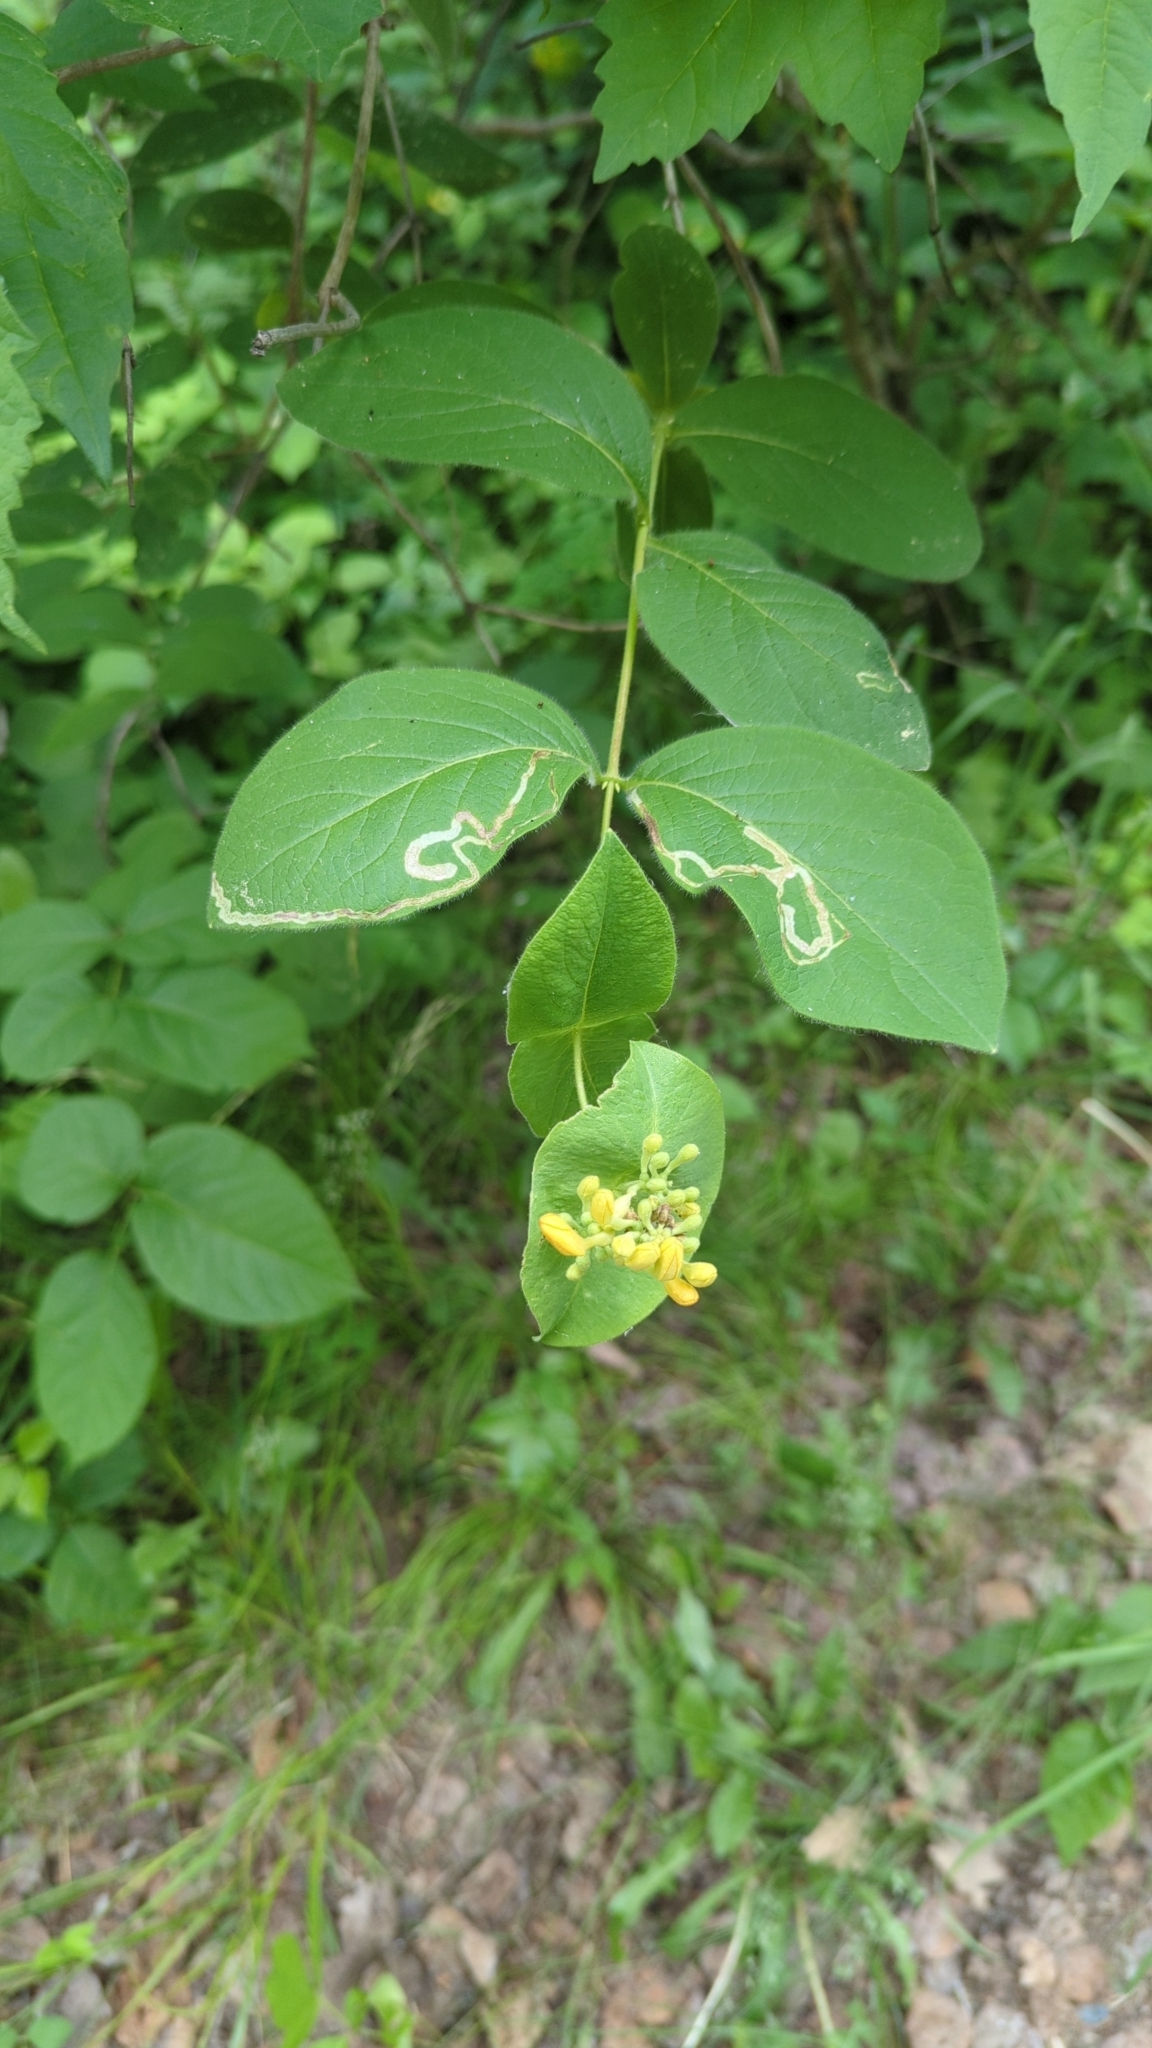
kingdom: Plantae
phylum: Tracheophyta
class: Magnoliopsida
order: Dipsacales
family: Caprifoliaceae
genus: Lonicera
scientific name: Lonicera hirsuta
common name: Hairy honeysuckle
